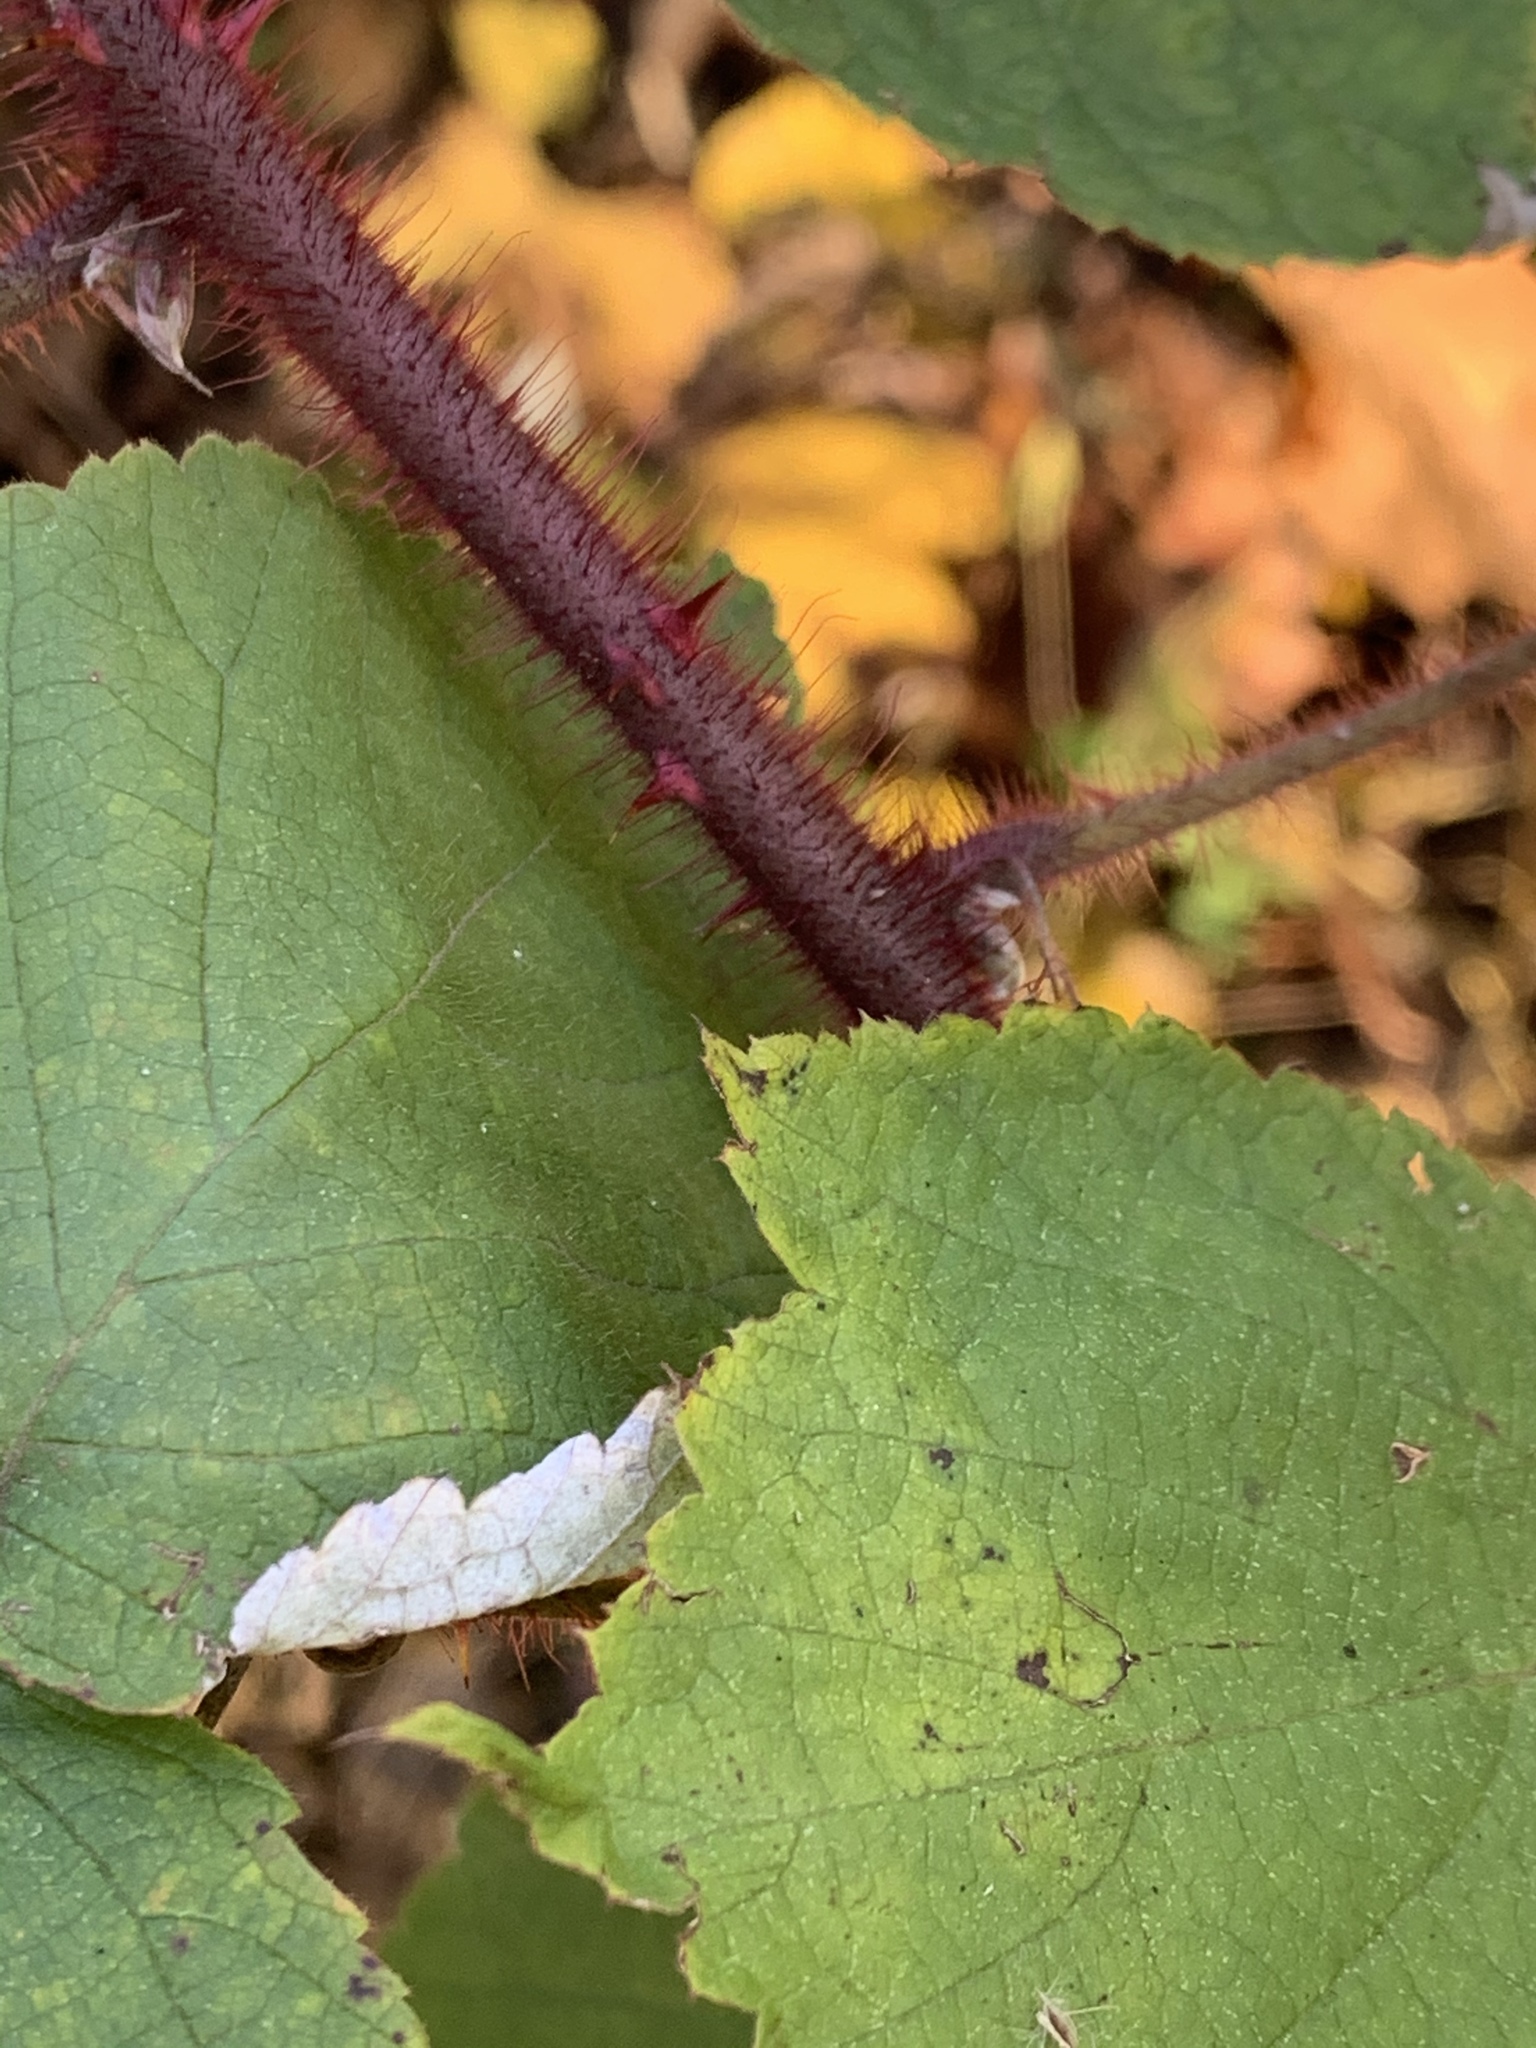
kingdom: Plantae
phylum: Tracheophyta
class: Magnoliopsida
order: Rosales
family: Rosaceae
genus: Rubus
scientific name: Rubus phoenicolasius
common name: Japanese wineberry
